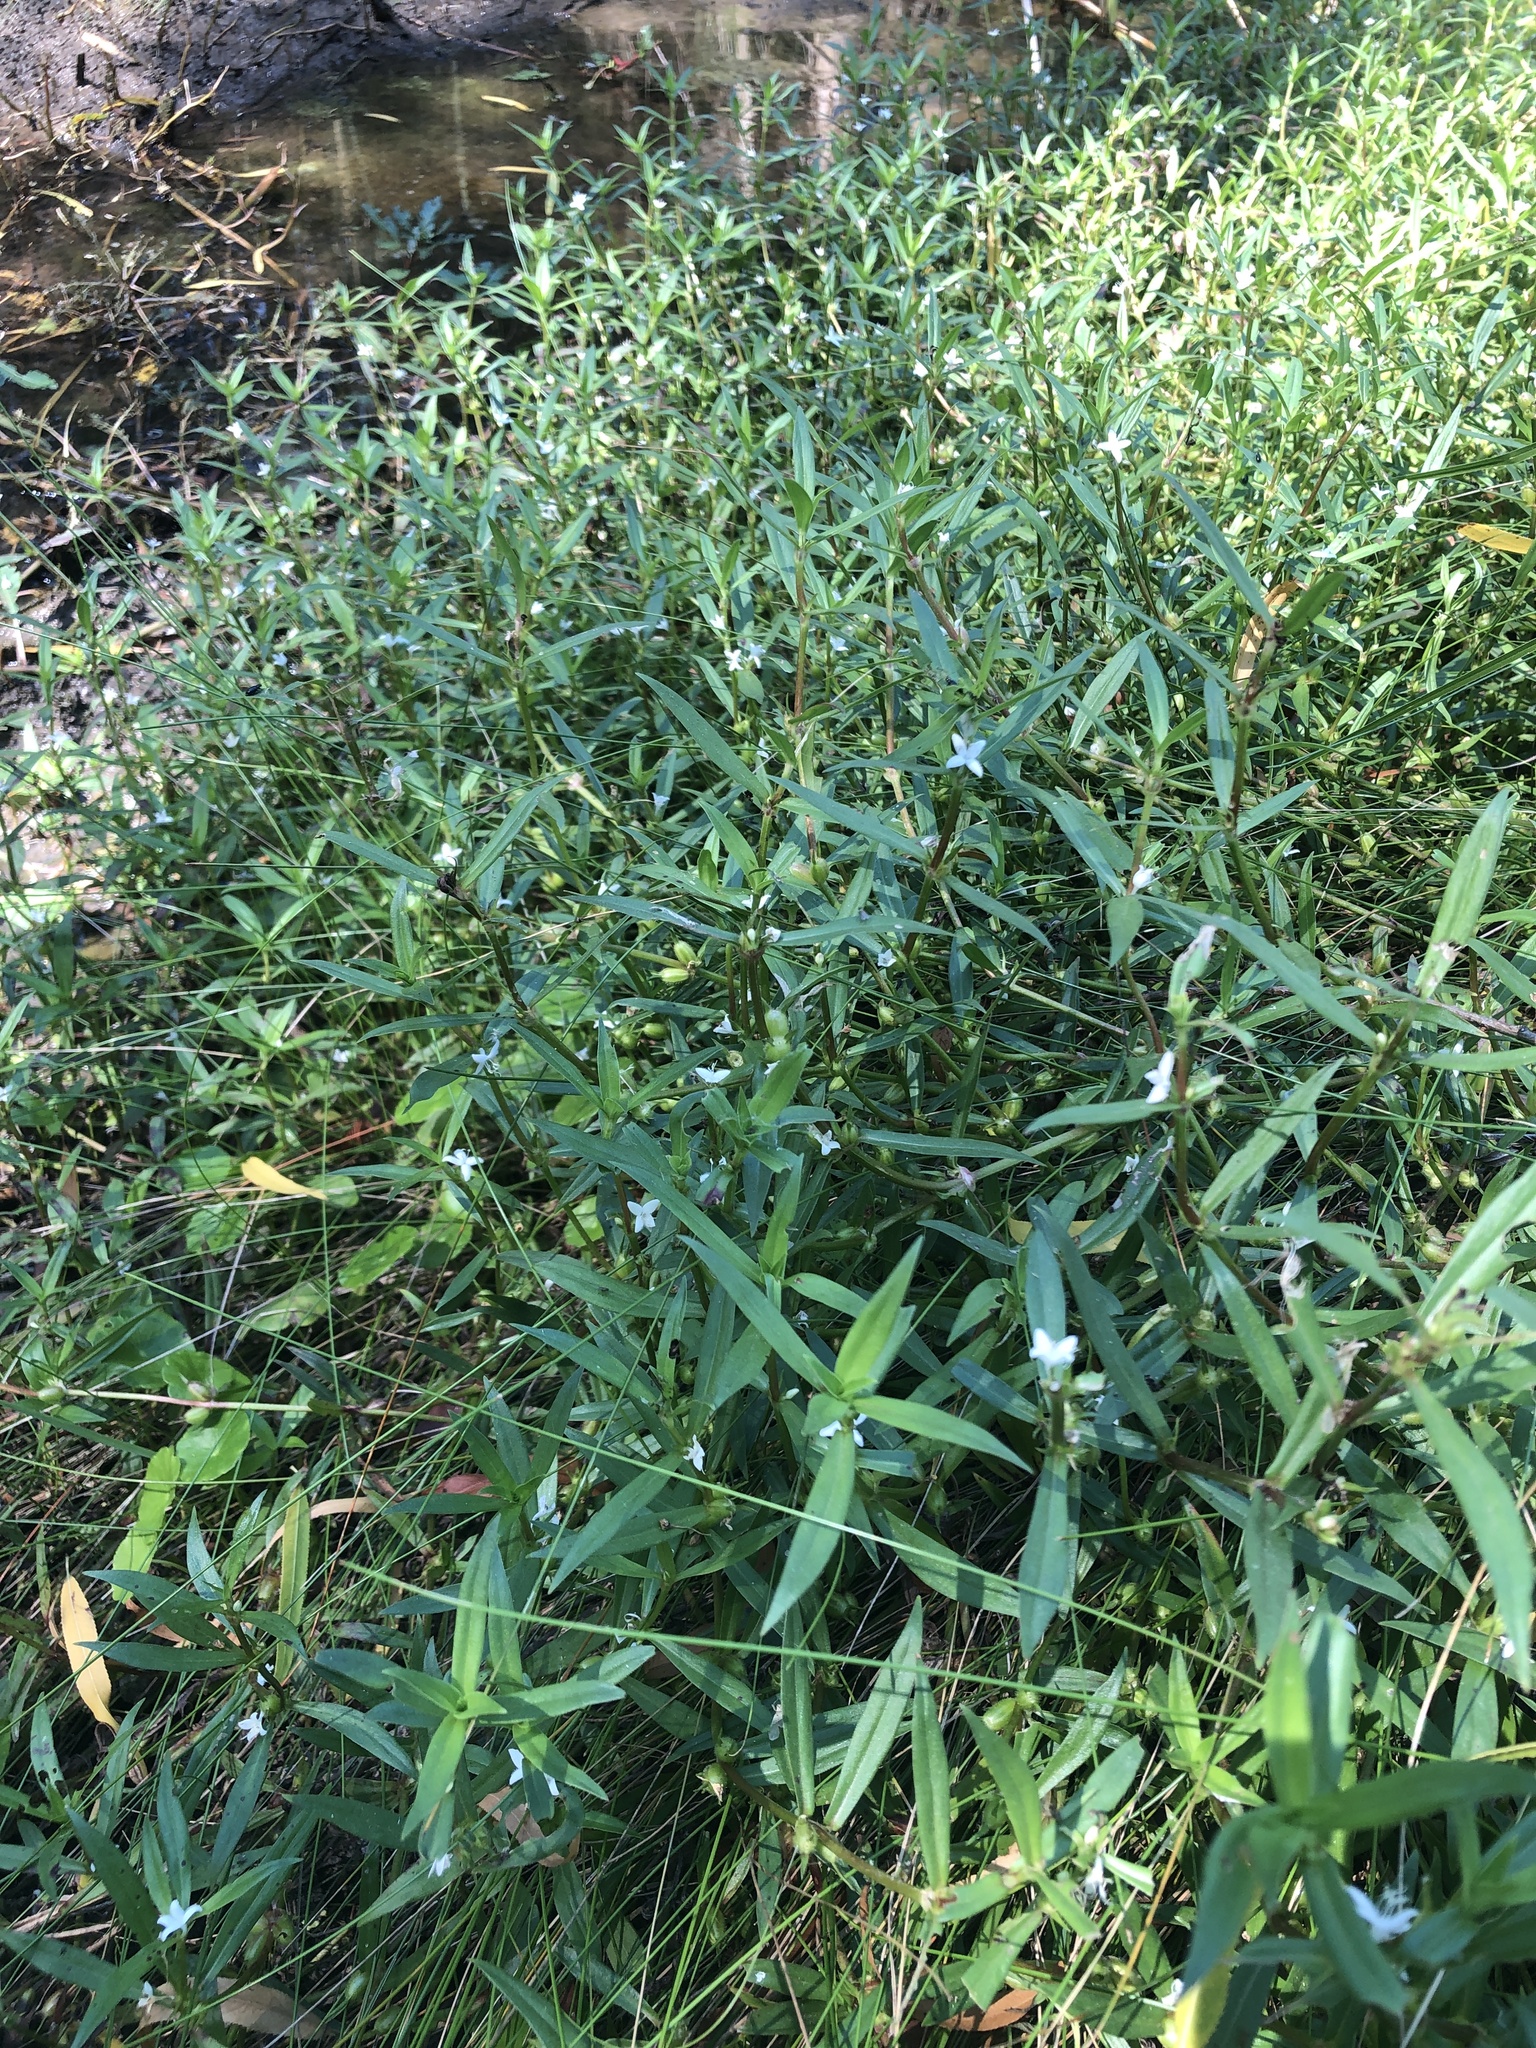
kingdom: Plantae
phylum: Tracheophyta
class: Magnoliopsida
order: Gentianales
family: Rubiaceae
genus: Diodia
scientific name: Diodia virginiana
